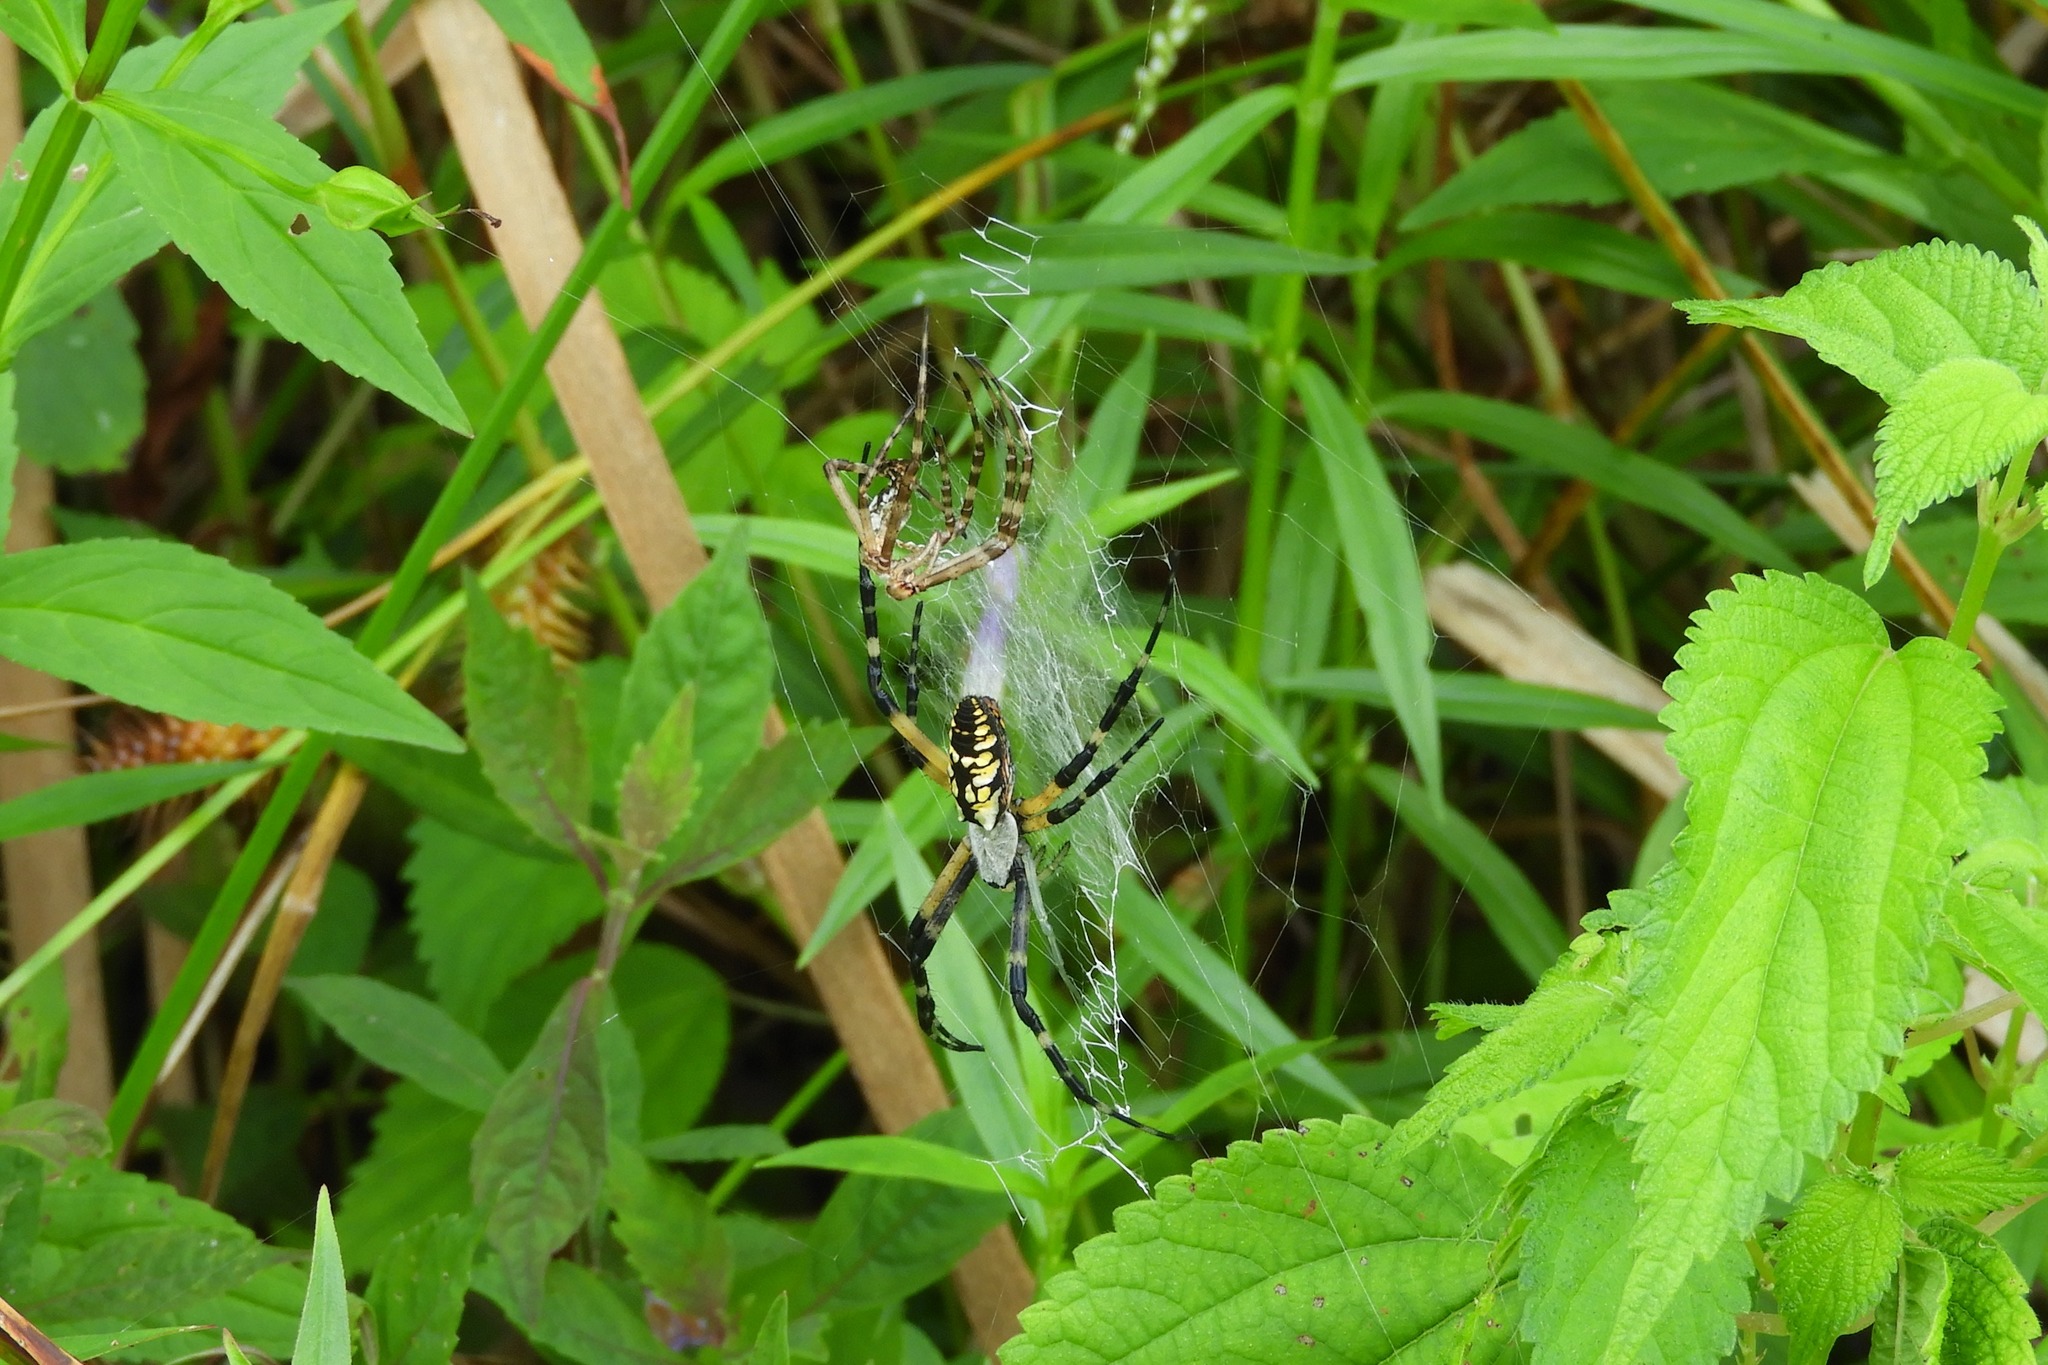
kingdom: Animalia
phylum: Arthropoda
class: Arachnida
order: Araneae
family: Araneidae
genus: Argiope
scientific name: Argiope aurantia
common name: Orb weavers
